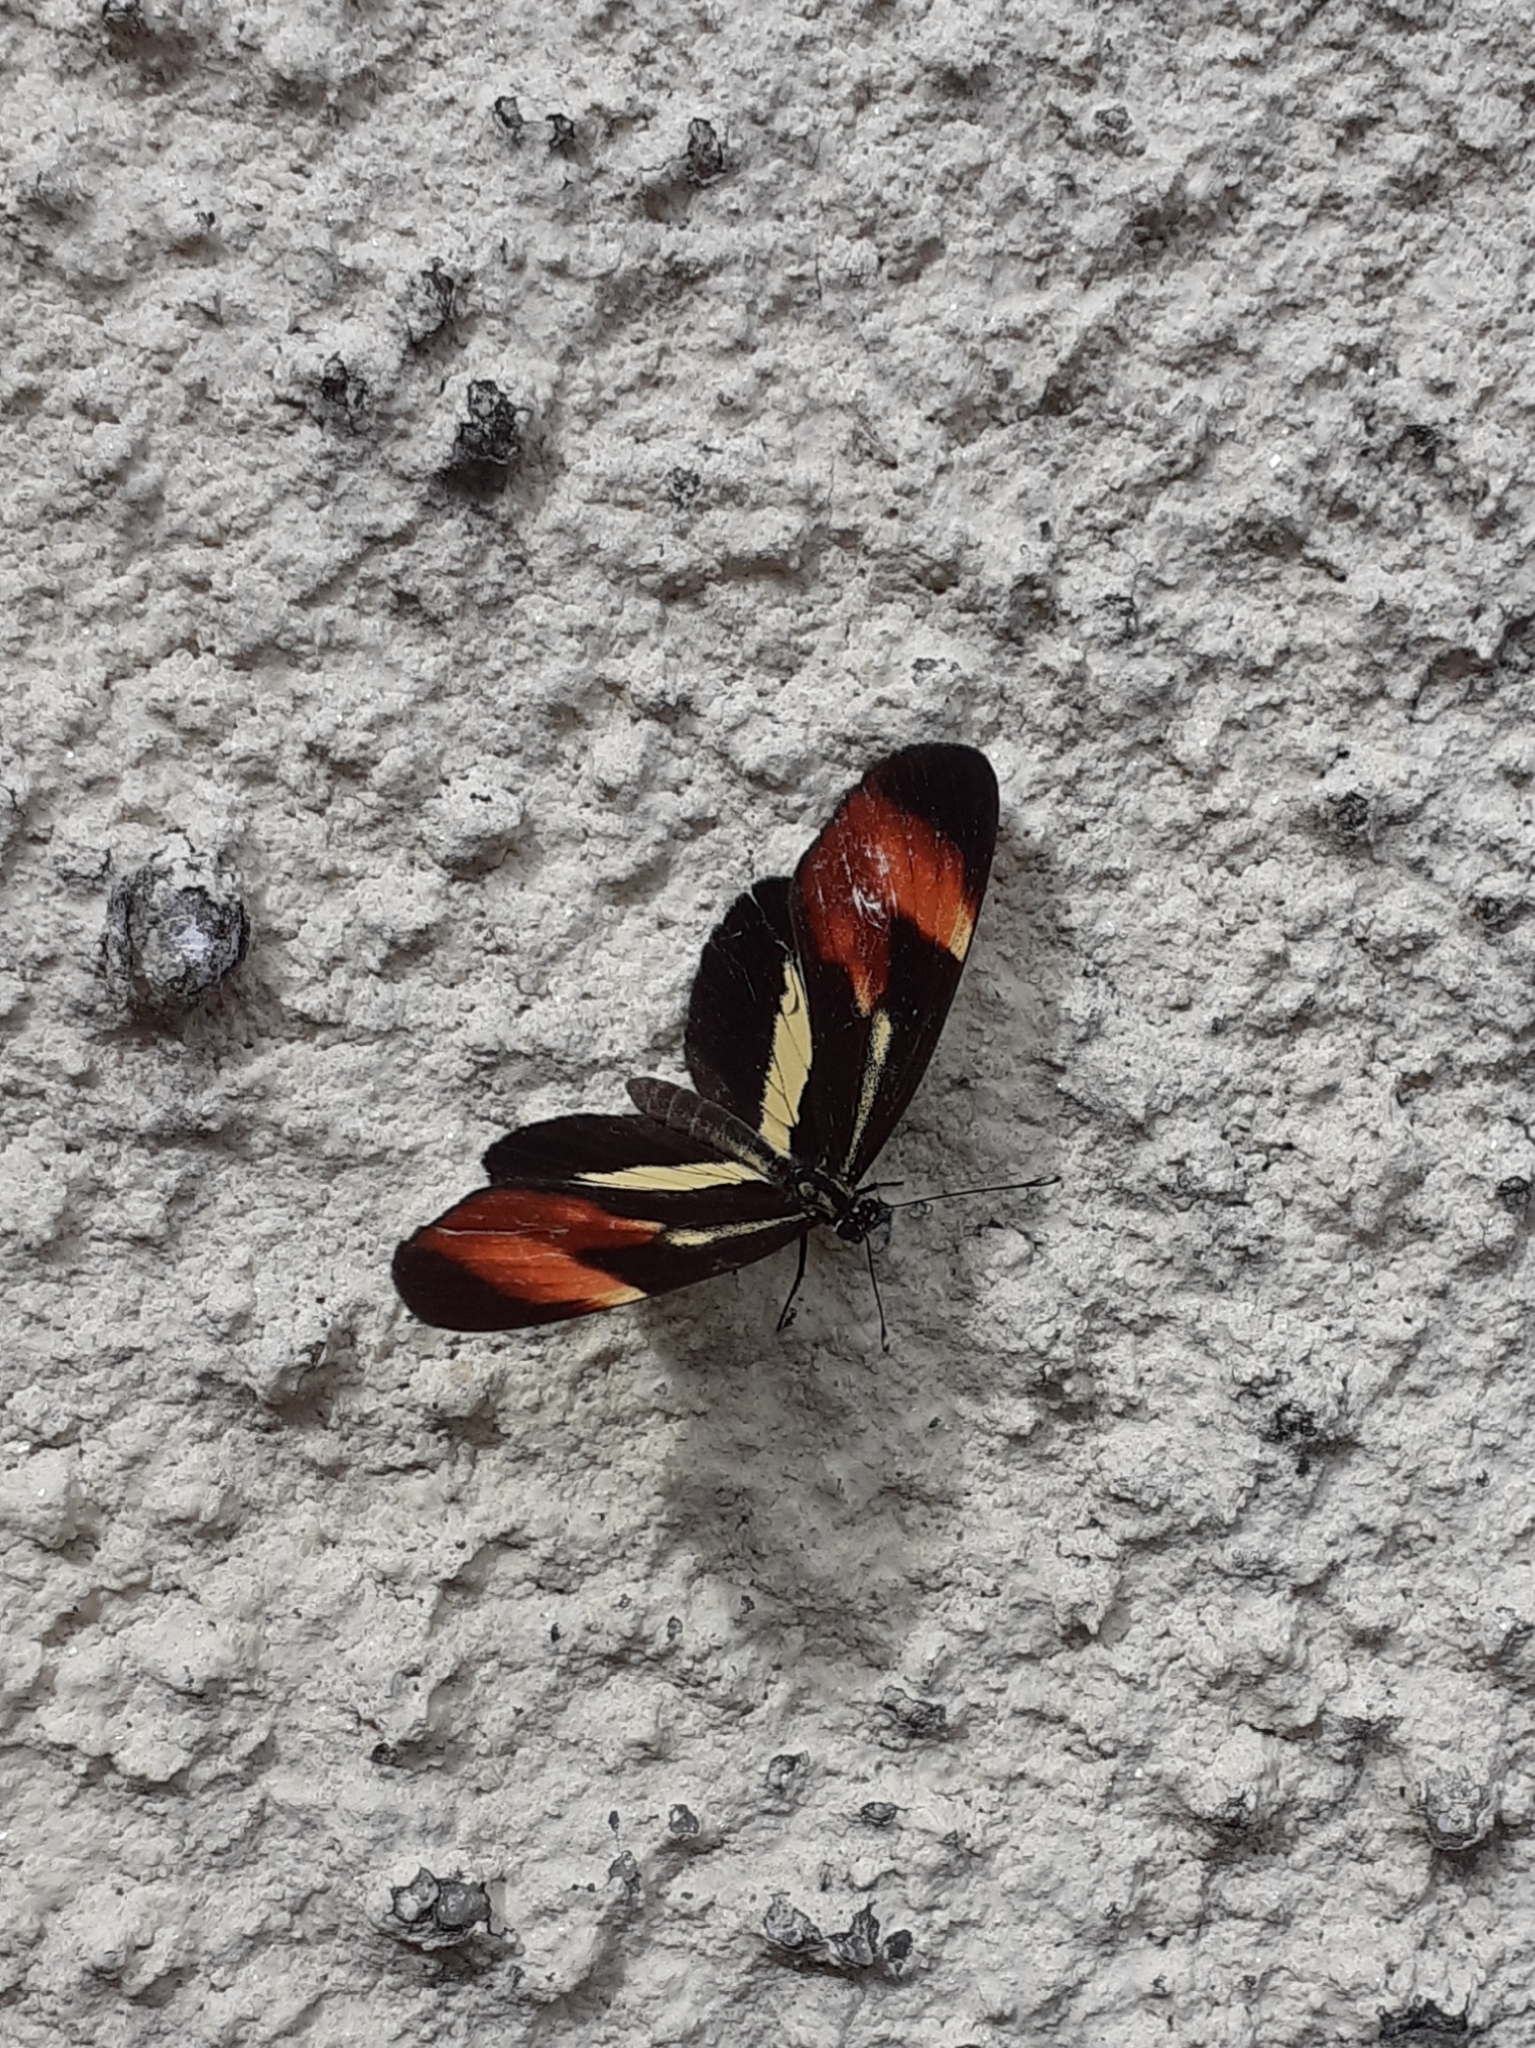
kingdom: Animalia
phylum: Arthropoda
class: Insecta
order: Lepidoptera
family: Nymphalidae
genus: Eresia
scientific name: Eresia lansdorfi
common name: Lansdorf's crescent
